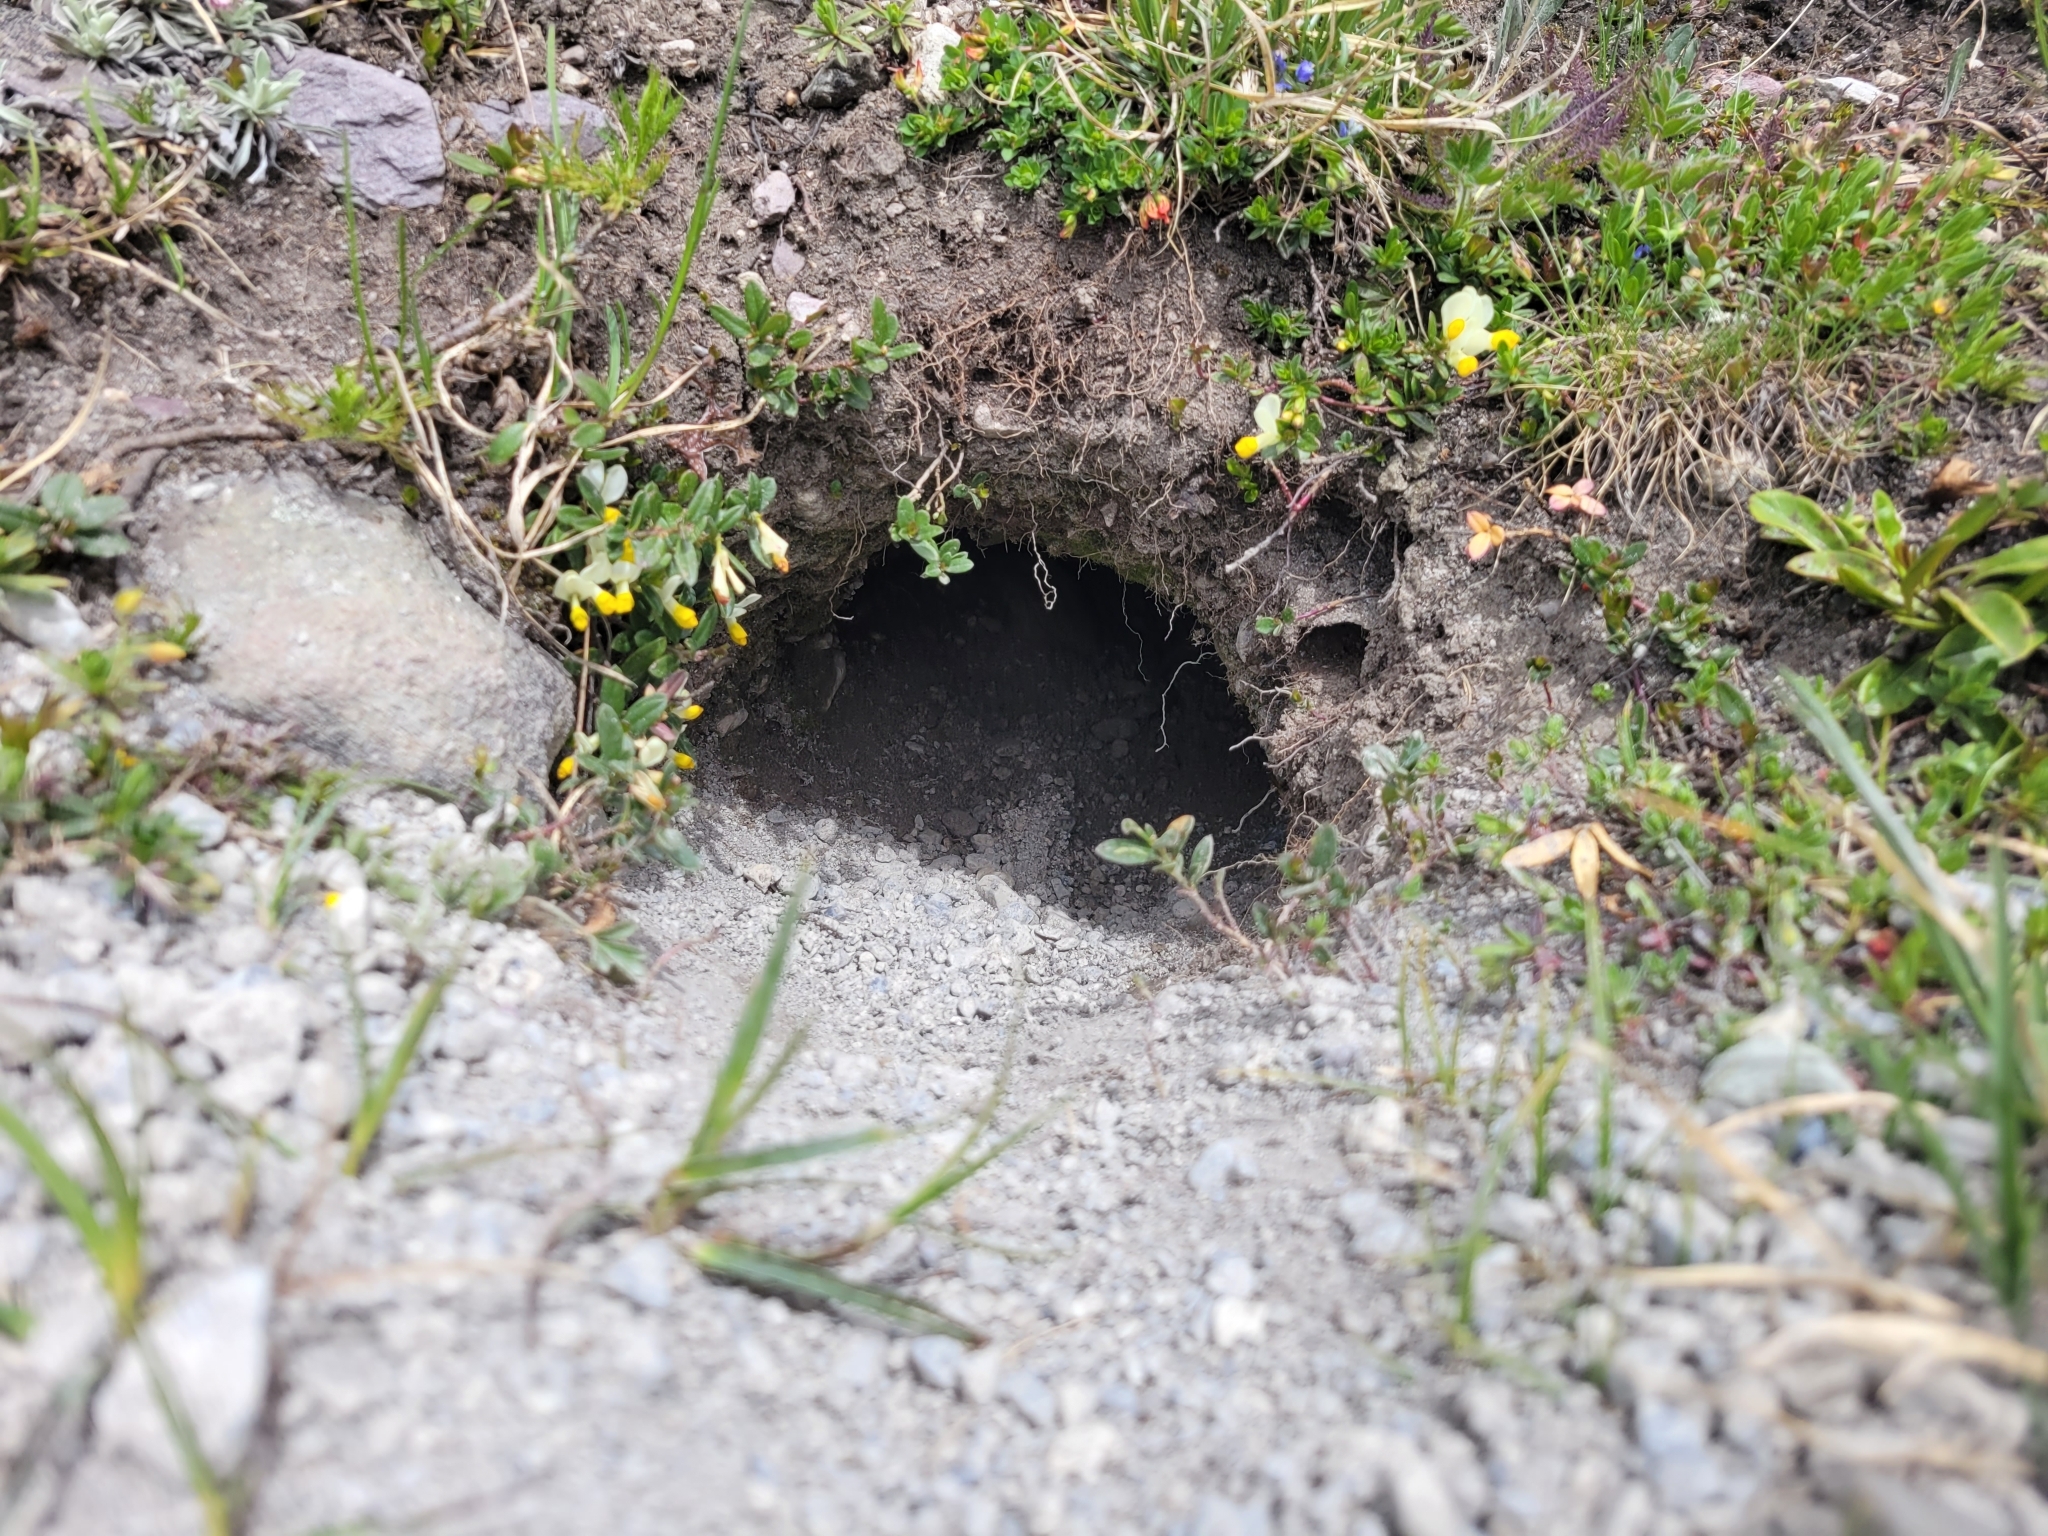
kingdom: Animalia
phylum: Chordata
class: Mammalia
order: Rodentia
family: Sciuridae
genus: Marmota
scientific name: Marmota marmota
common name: Alpine marmot
